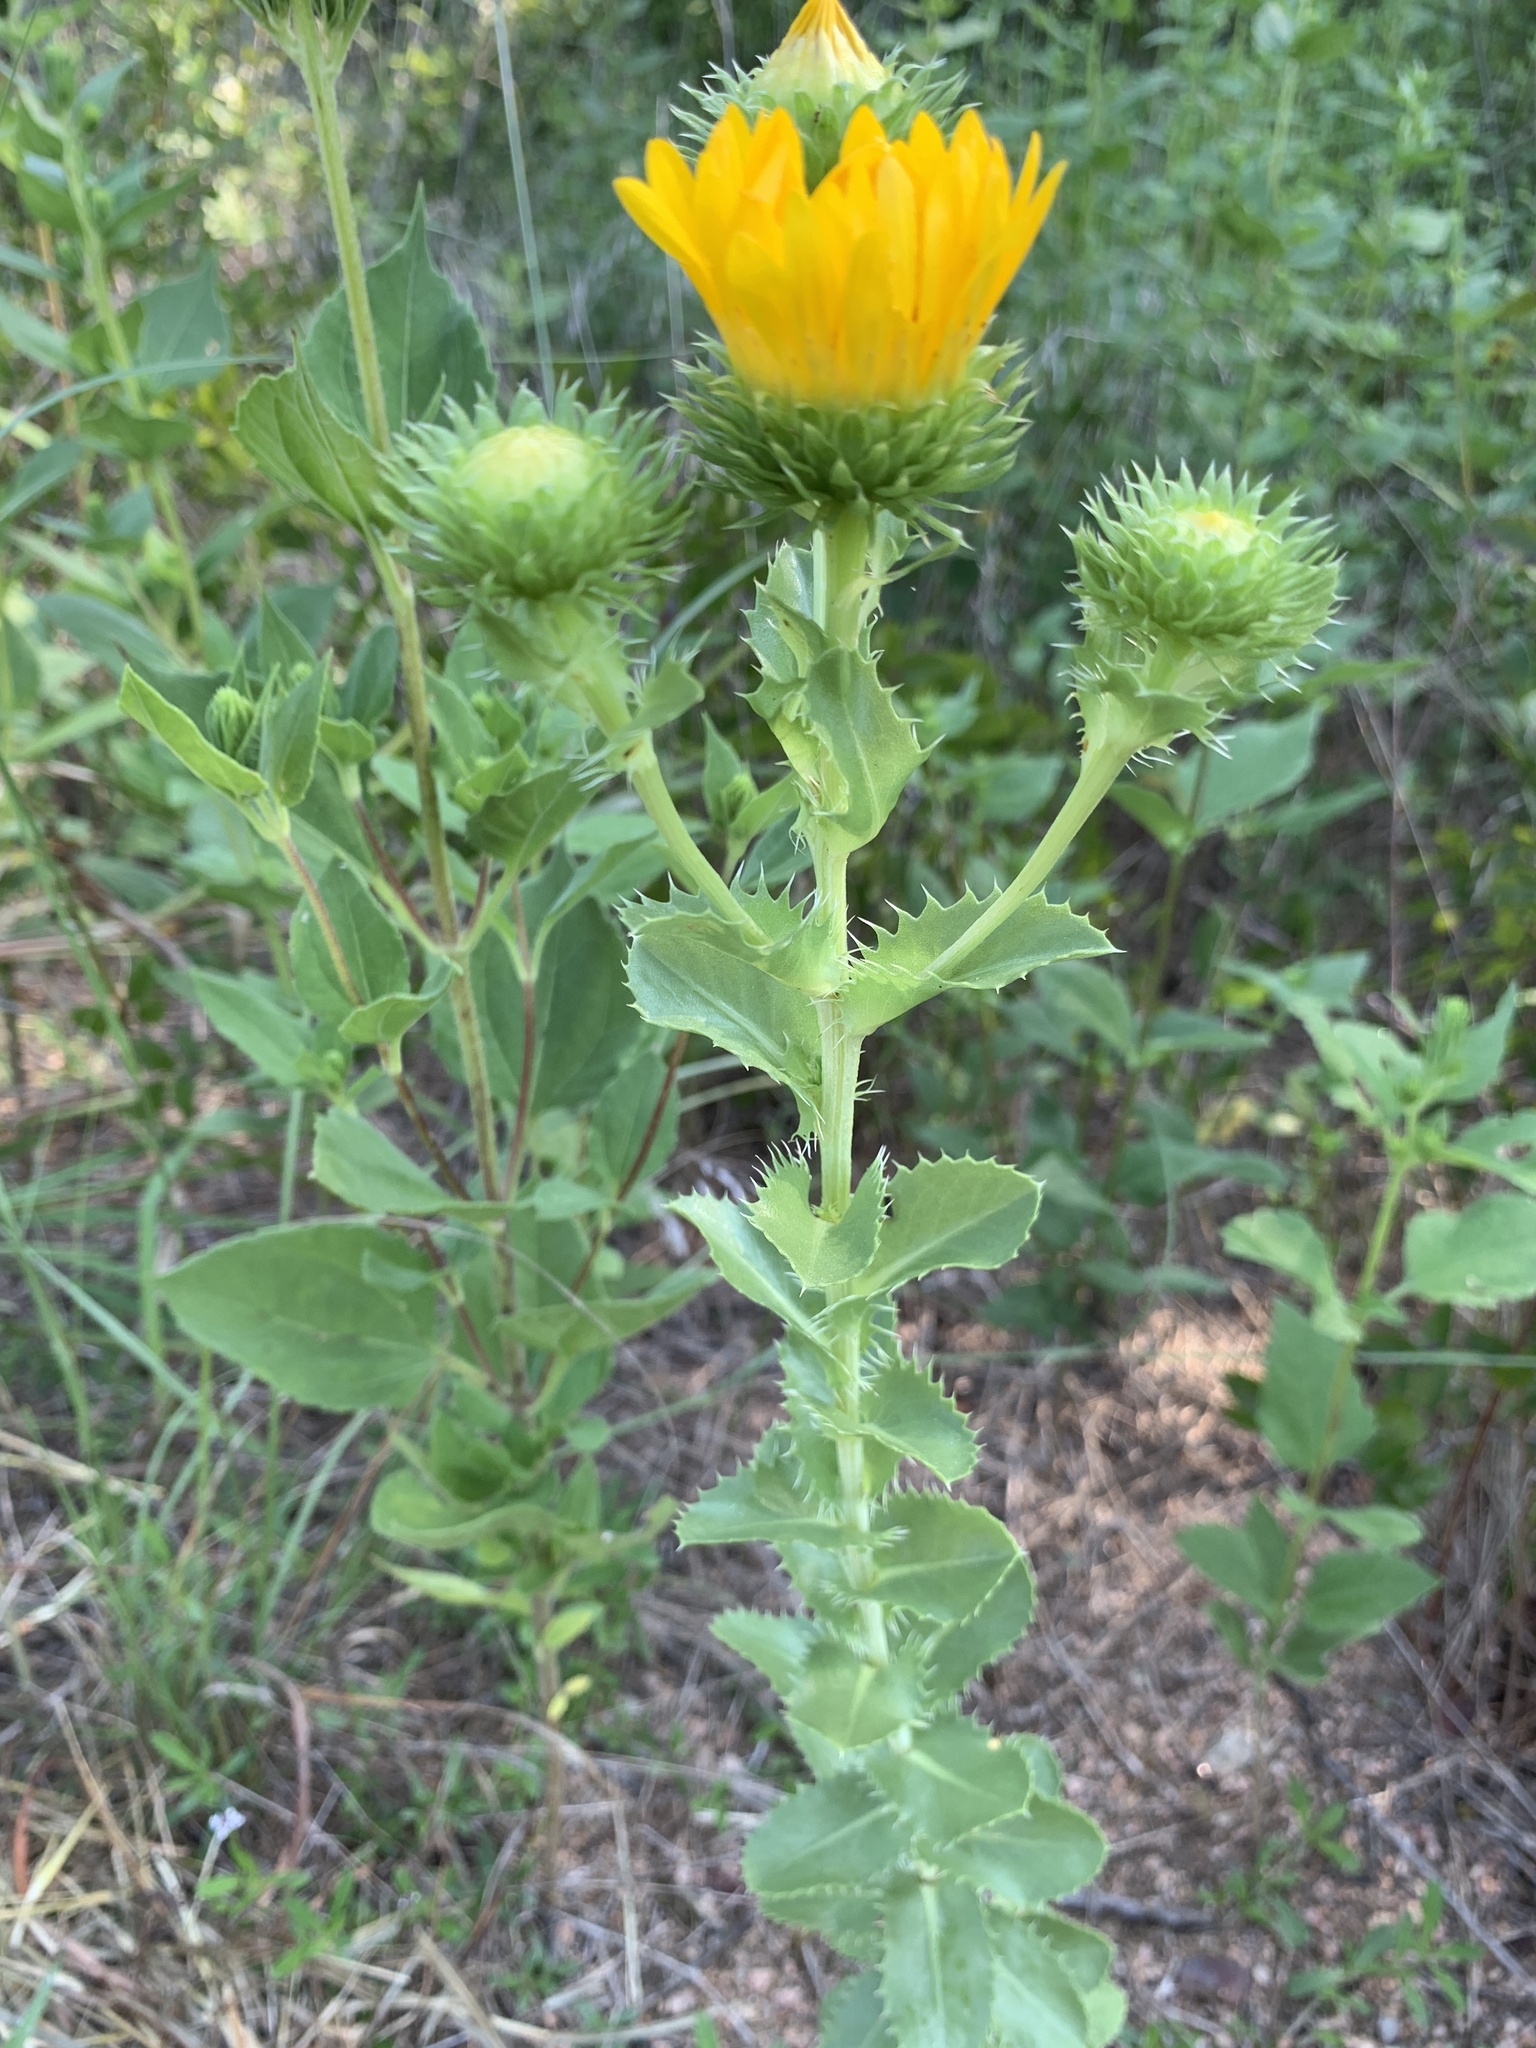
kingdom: Plantae
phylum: Tracheophyta
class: Magnoliopsida
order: Asterales
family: Asteraceae
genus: Grindelia
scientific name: Grindelia ciliata
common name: Goldenweed
